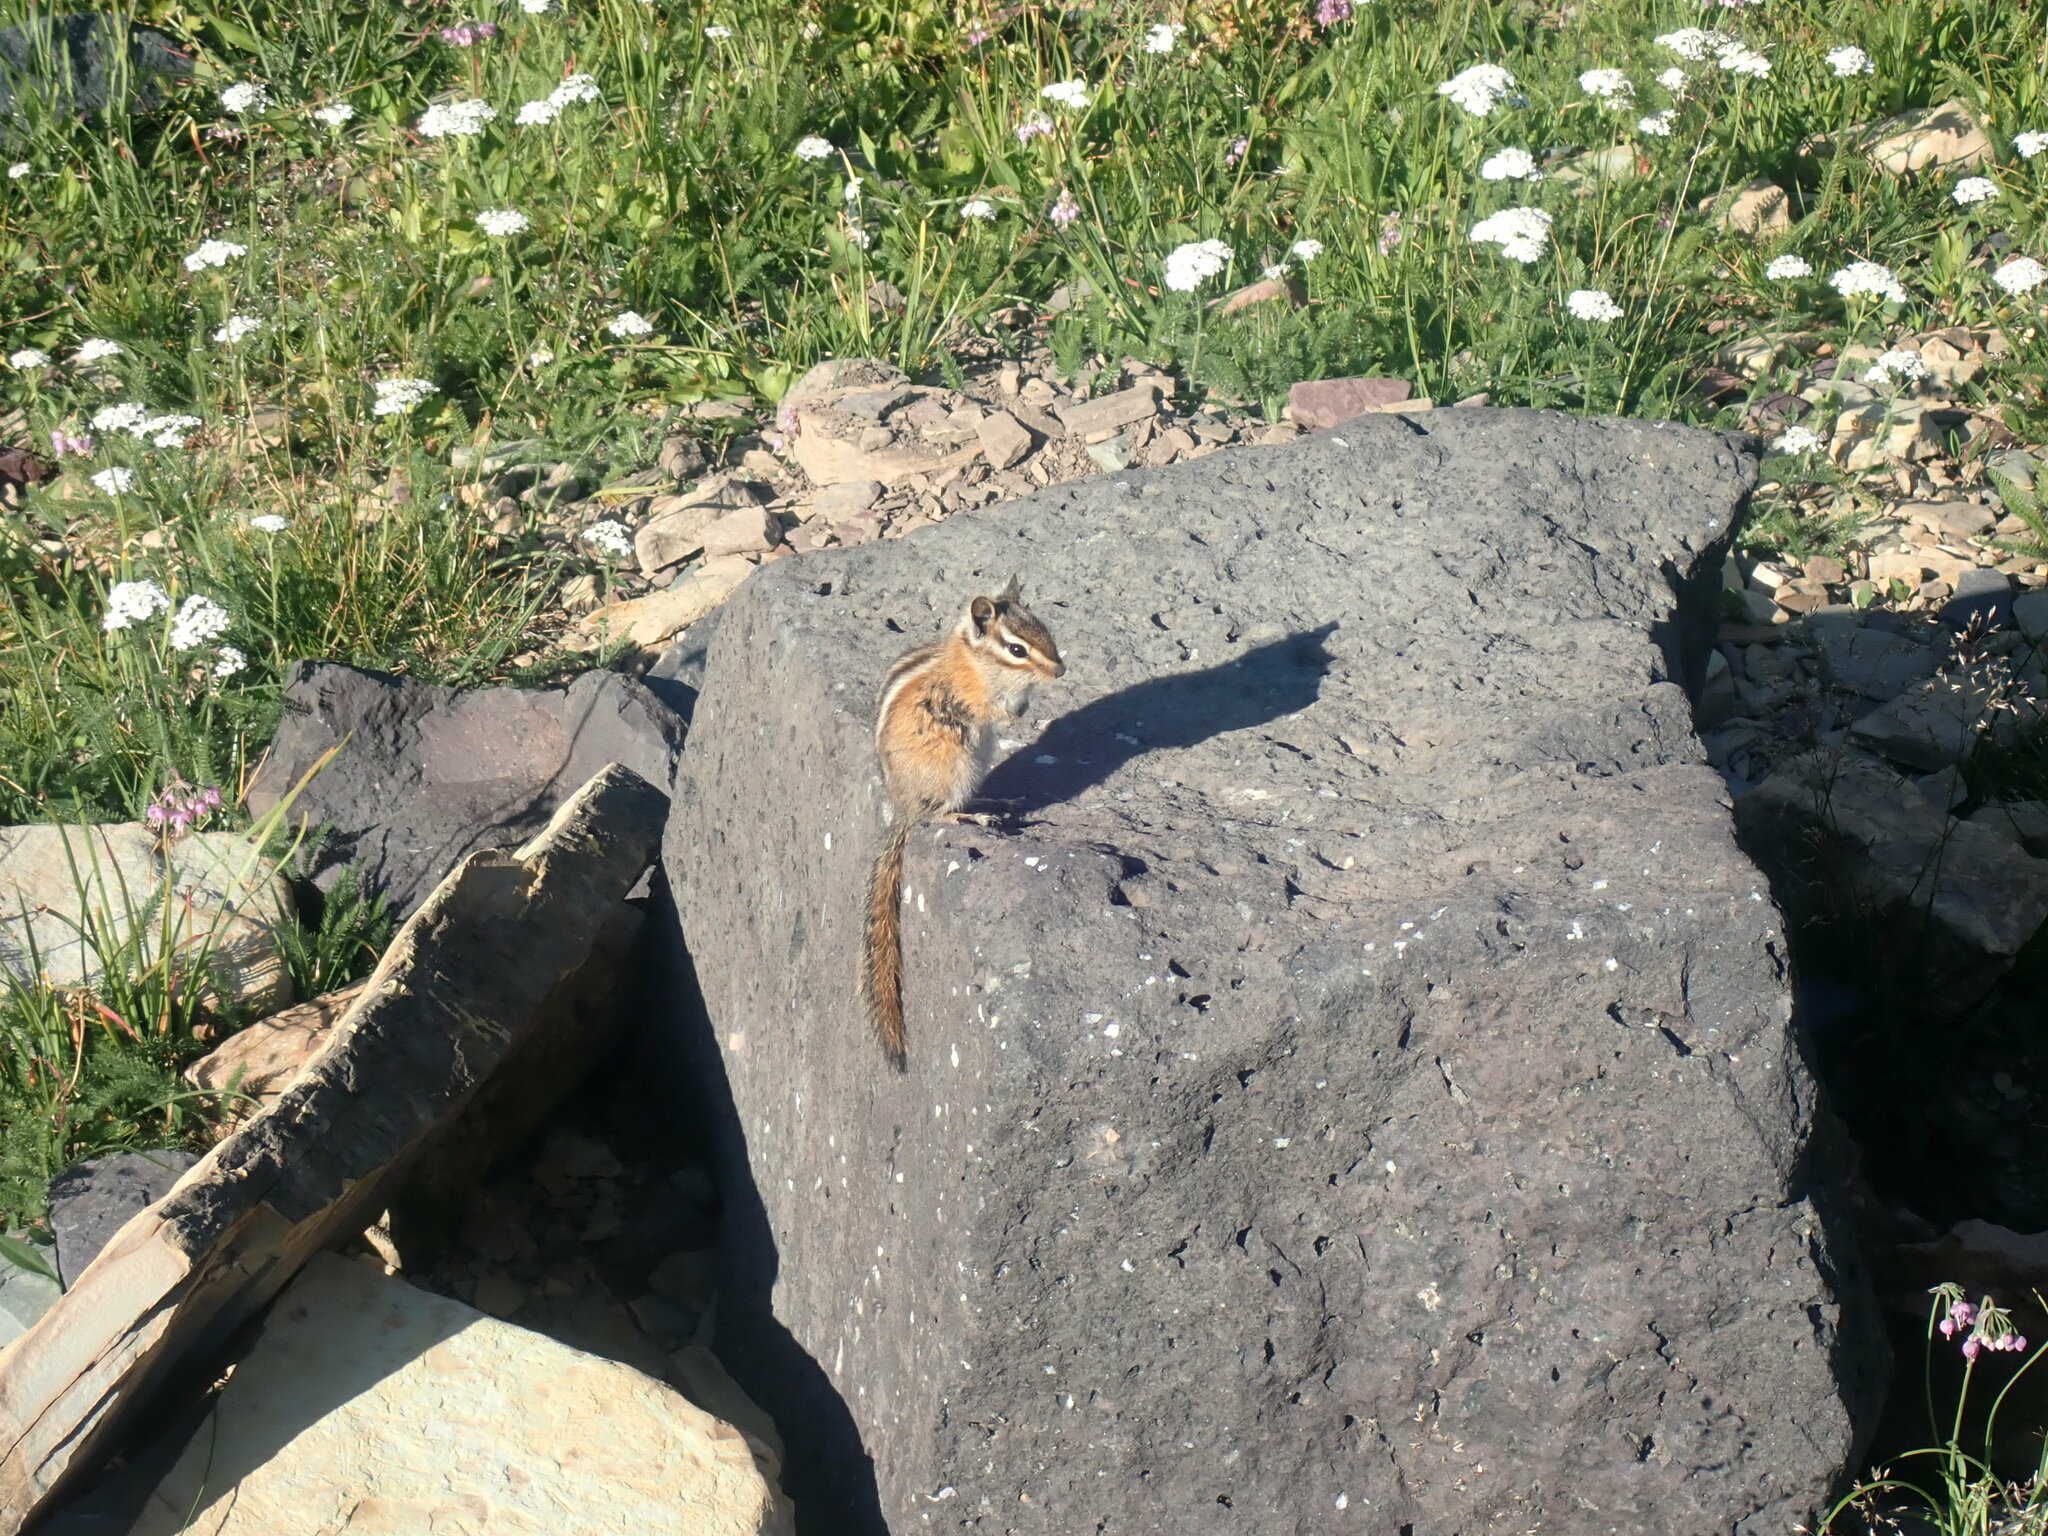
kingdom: Animalia
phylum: Chordata
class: Mammalia
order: Rodentia
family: Sciuridae
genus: Tamias
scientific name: Tamias amoenus
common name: Yellow-pine chipmunk
